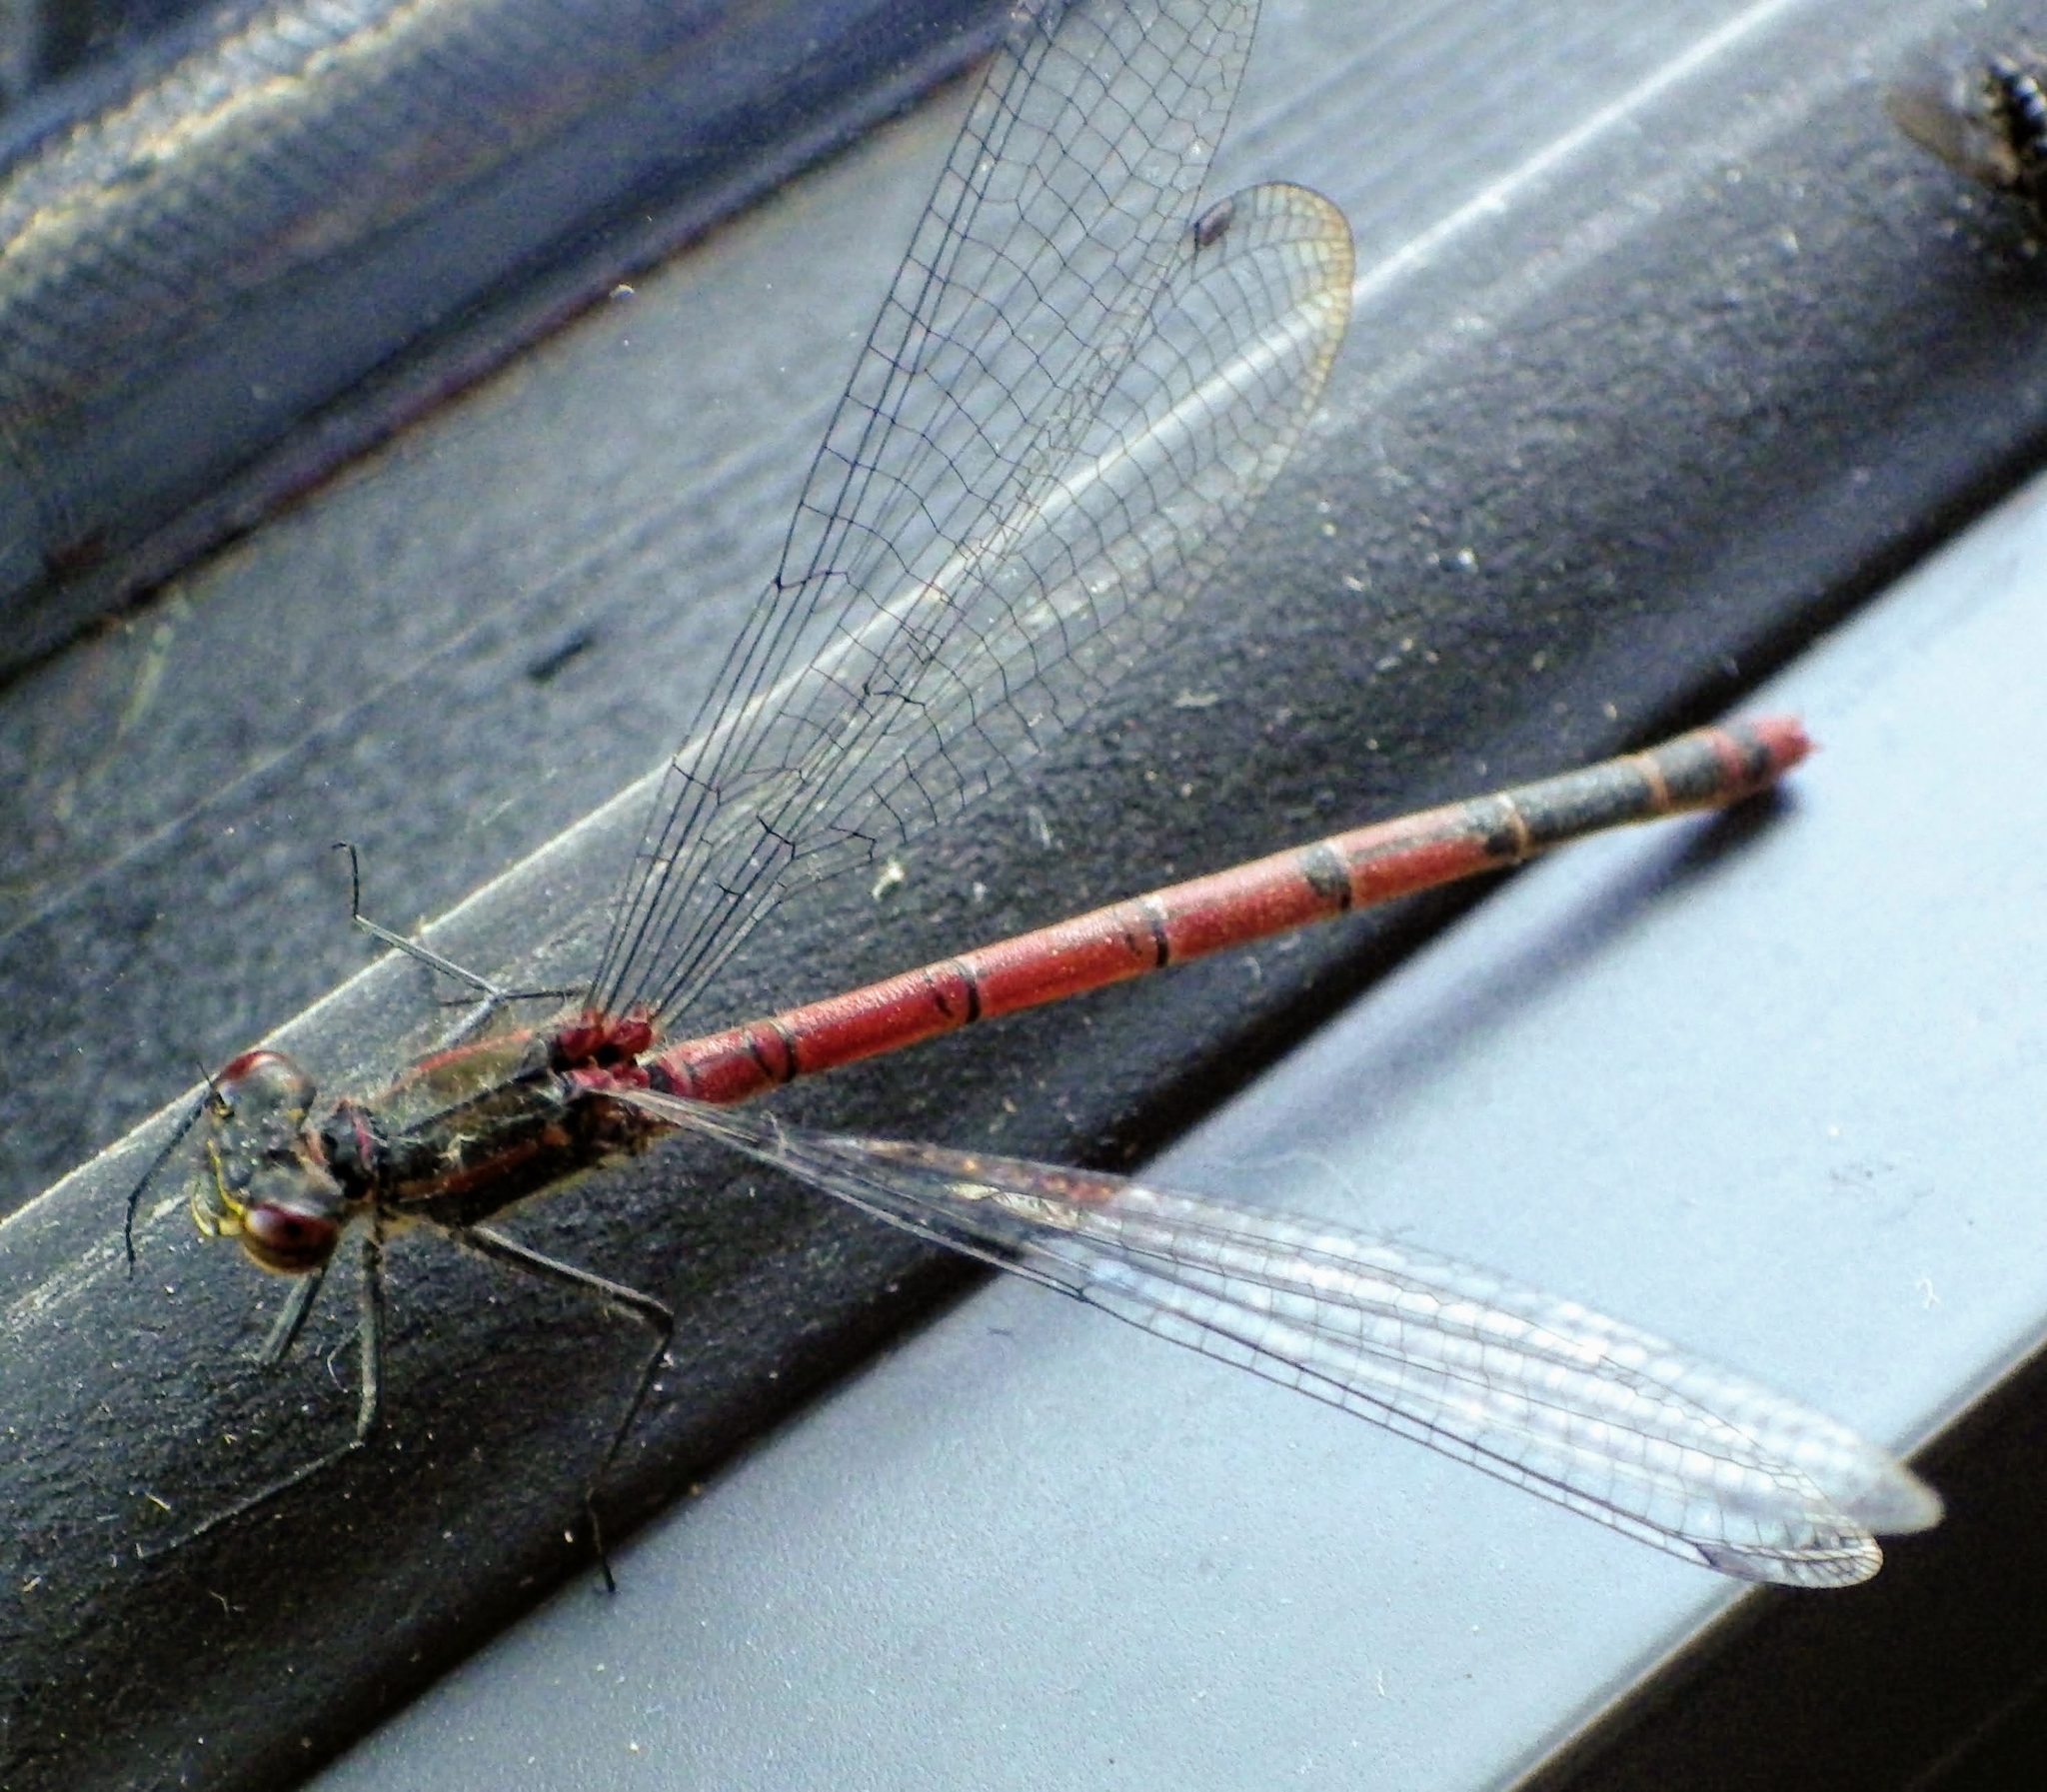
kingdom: Animalia
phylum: Arthropoda
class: Insecta
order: Odonata
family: Coenagrionidae
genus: Pyrrhosoma
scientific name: Pyrrhosoma nymphula
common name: Large red damsel
